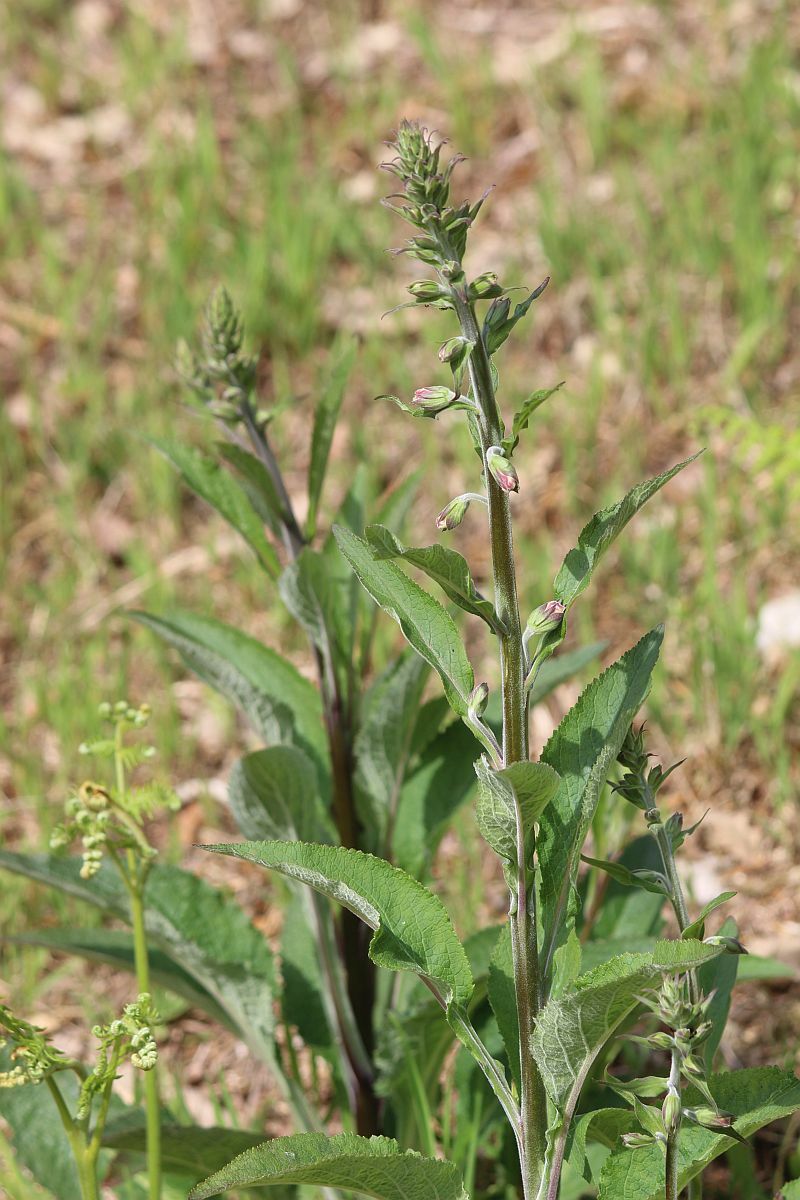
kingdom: Plantae
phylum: Tracheophyta
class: Magnoliopsida
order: Lamiales
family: Plantaginaceae
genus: Digitalis
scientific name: Digitalis purpurea
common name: Foxglove
